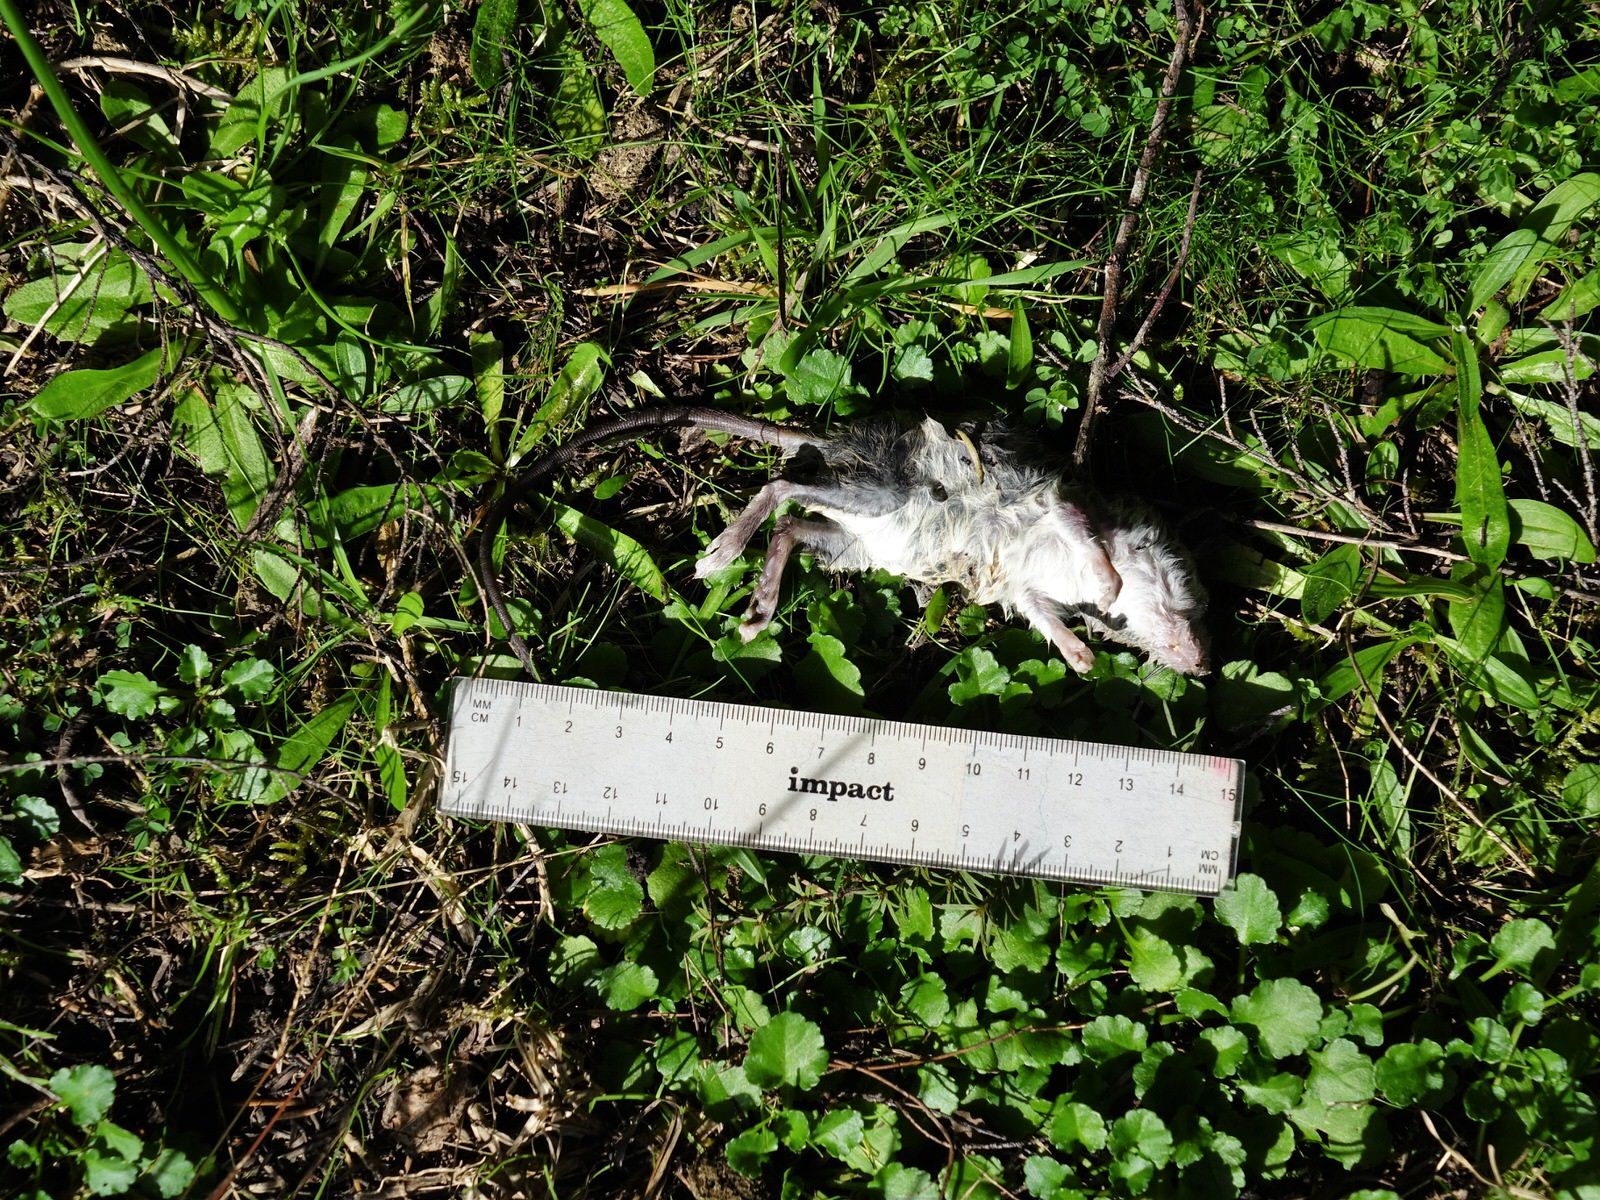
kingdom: Animalia
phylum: Chordata
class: Mammalia
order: Rodentia
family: Muridae
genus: Rattus
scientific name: Rattus rattus
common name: Black rat
